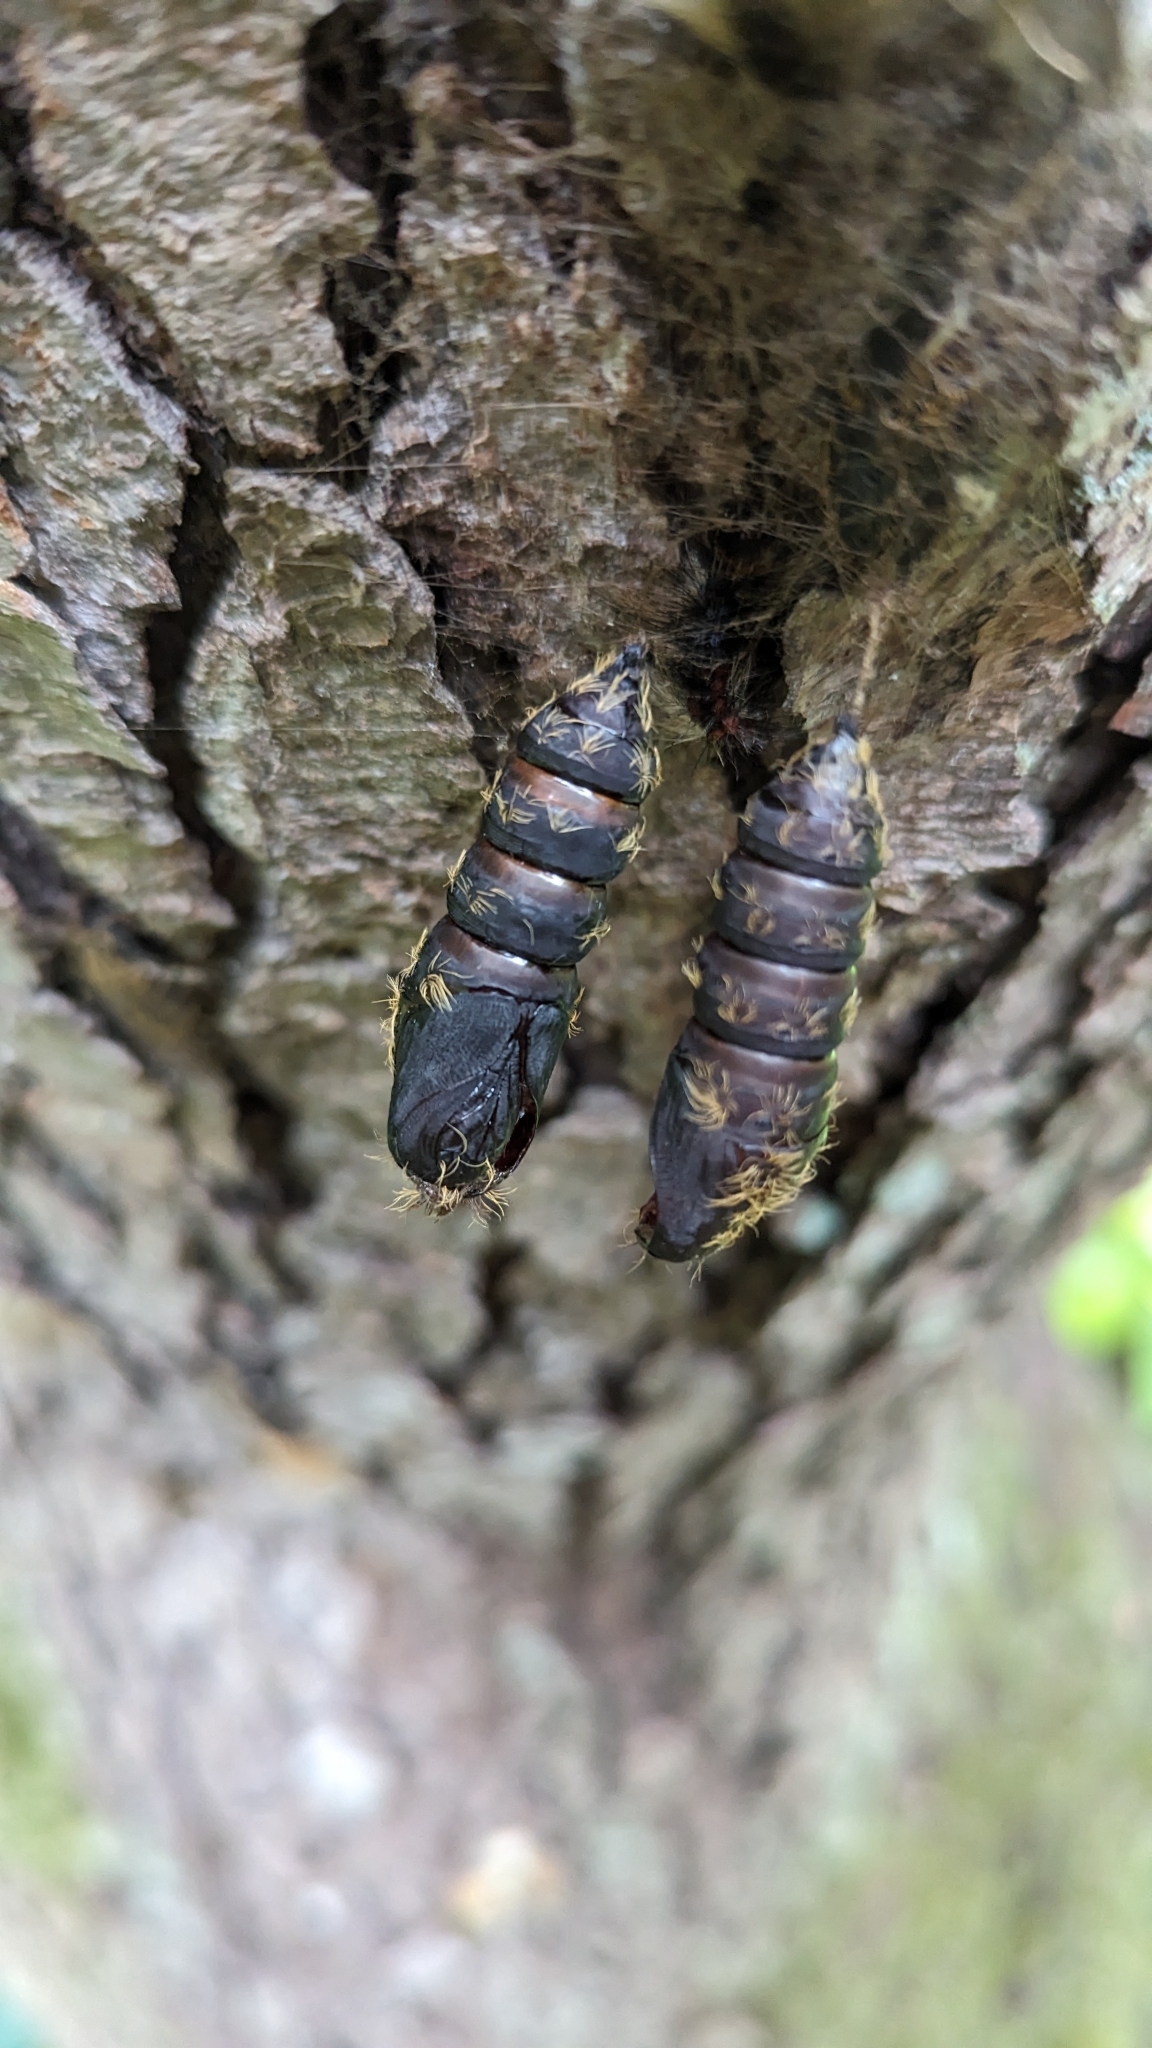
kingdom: Animalia
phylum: Arthropoda
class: Insecta
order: Lepidoptera
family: Erebidae
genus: Lymantria
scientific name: Lymantria dispar
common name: Gypsy moth
